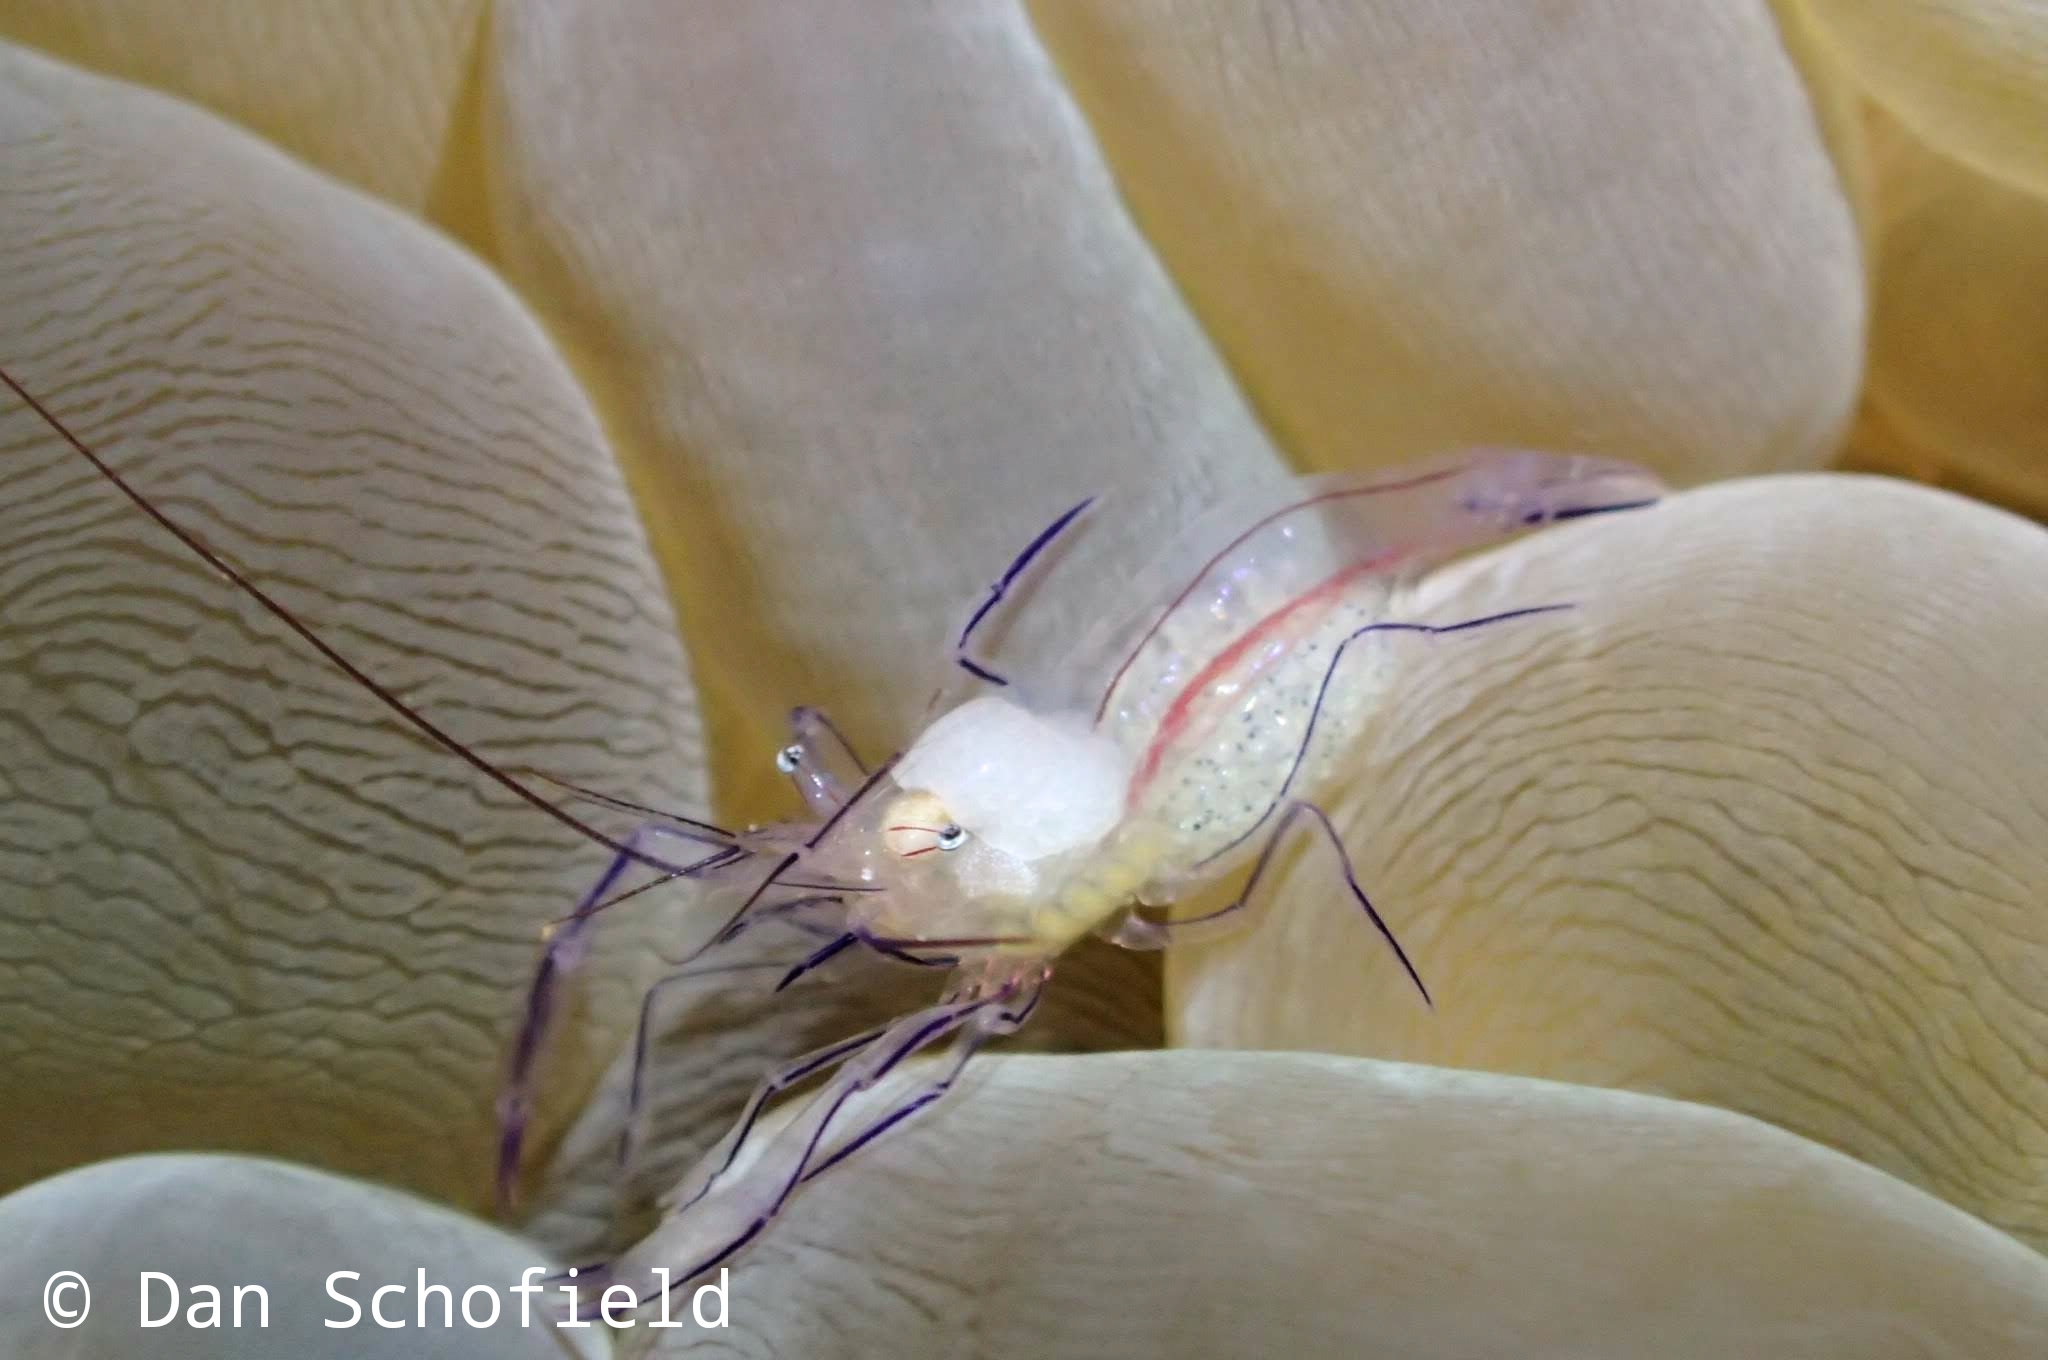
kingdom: Animalia
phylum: Arthropoda
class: Malacostraca
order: Decapoda
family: Palaemonidae
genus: Vir
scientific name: Vir philippinensis
